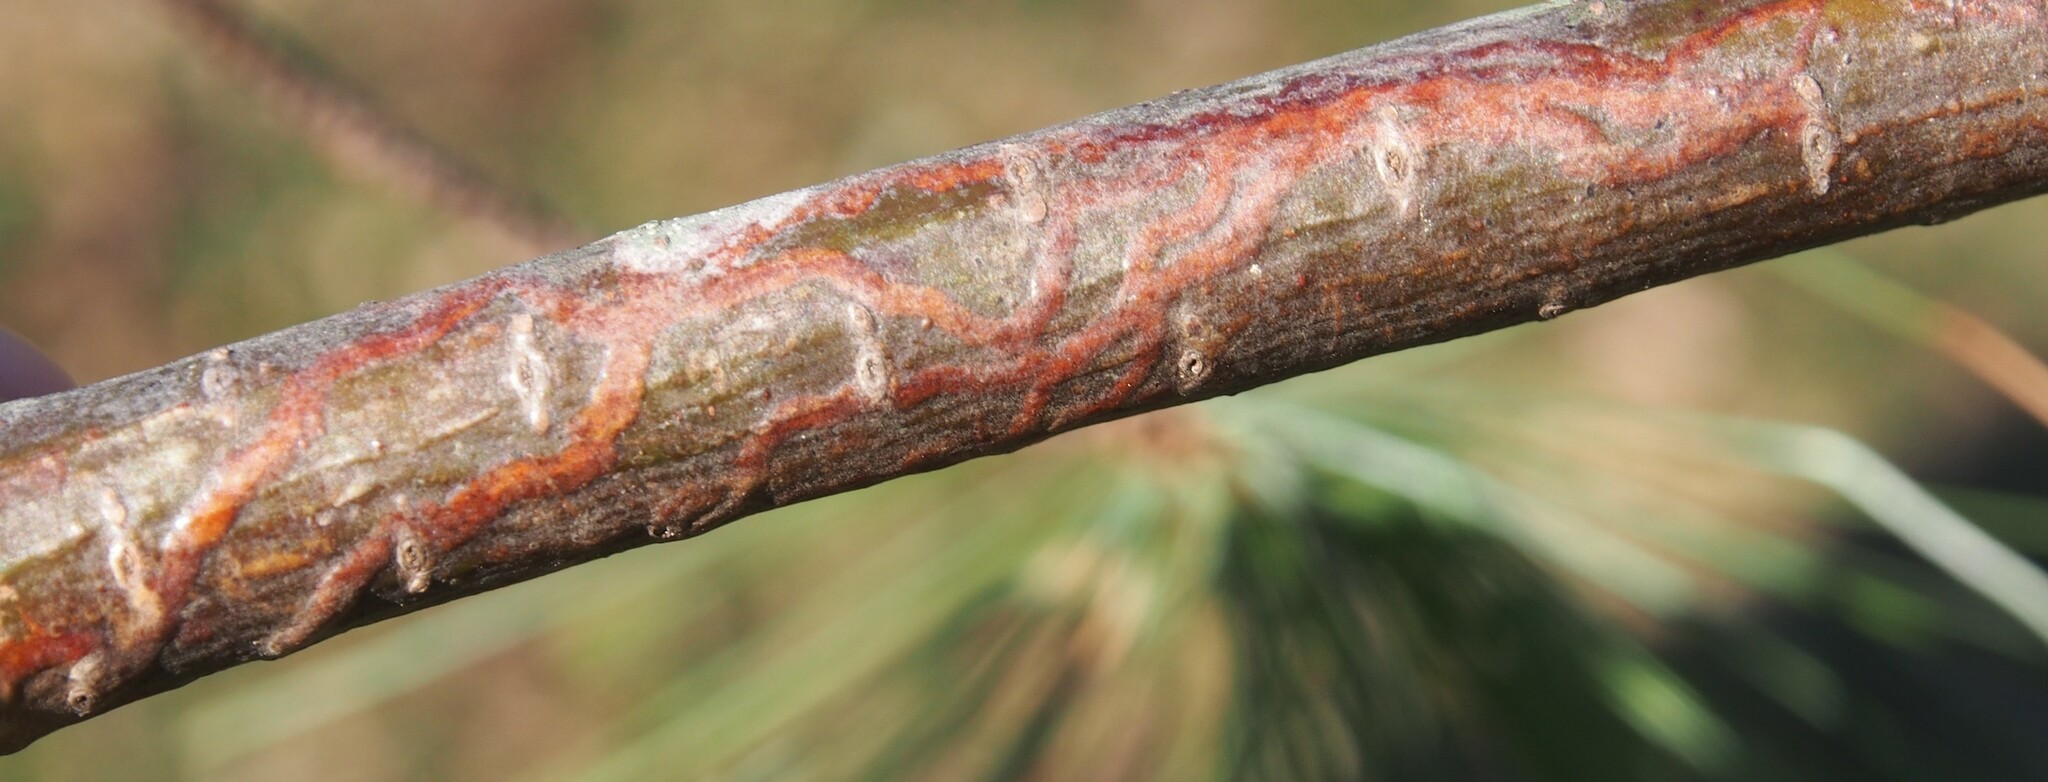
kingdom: Animalia
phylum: Arthropoda
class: Insecta
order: Lepidoptera
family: Gracillariidae
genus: Marmara
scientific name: Marmara fasciella
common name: White pine barkminer moth
